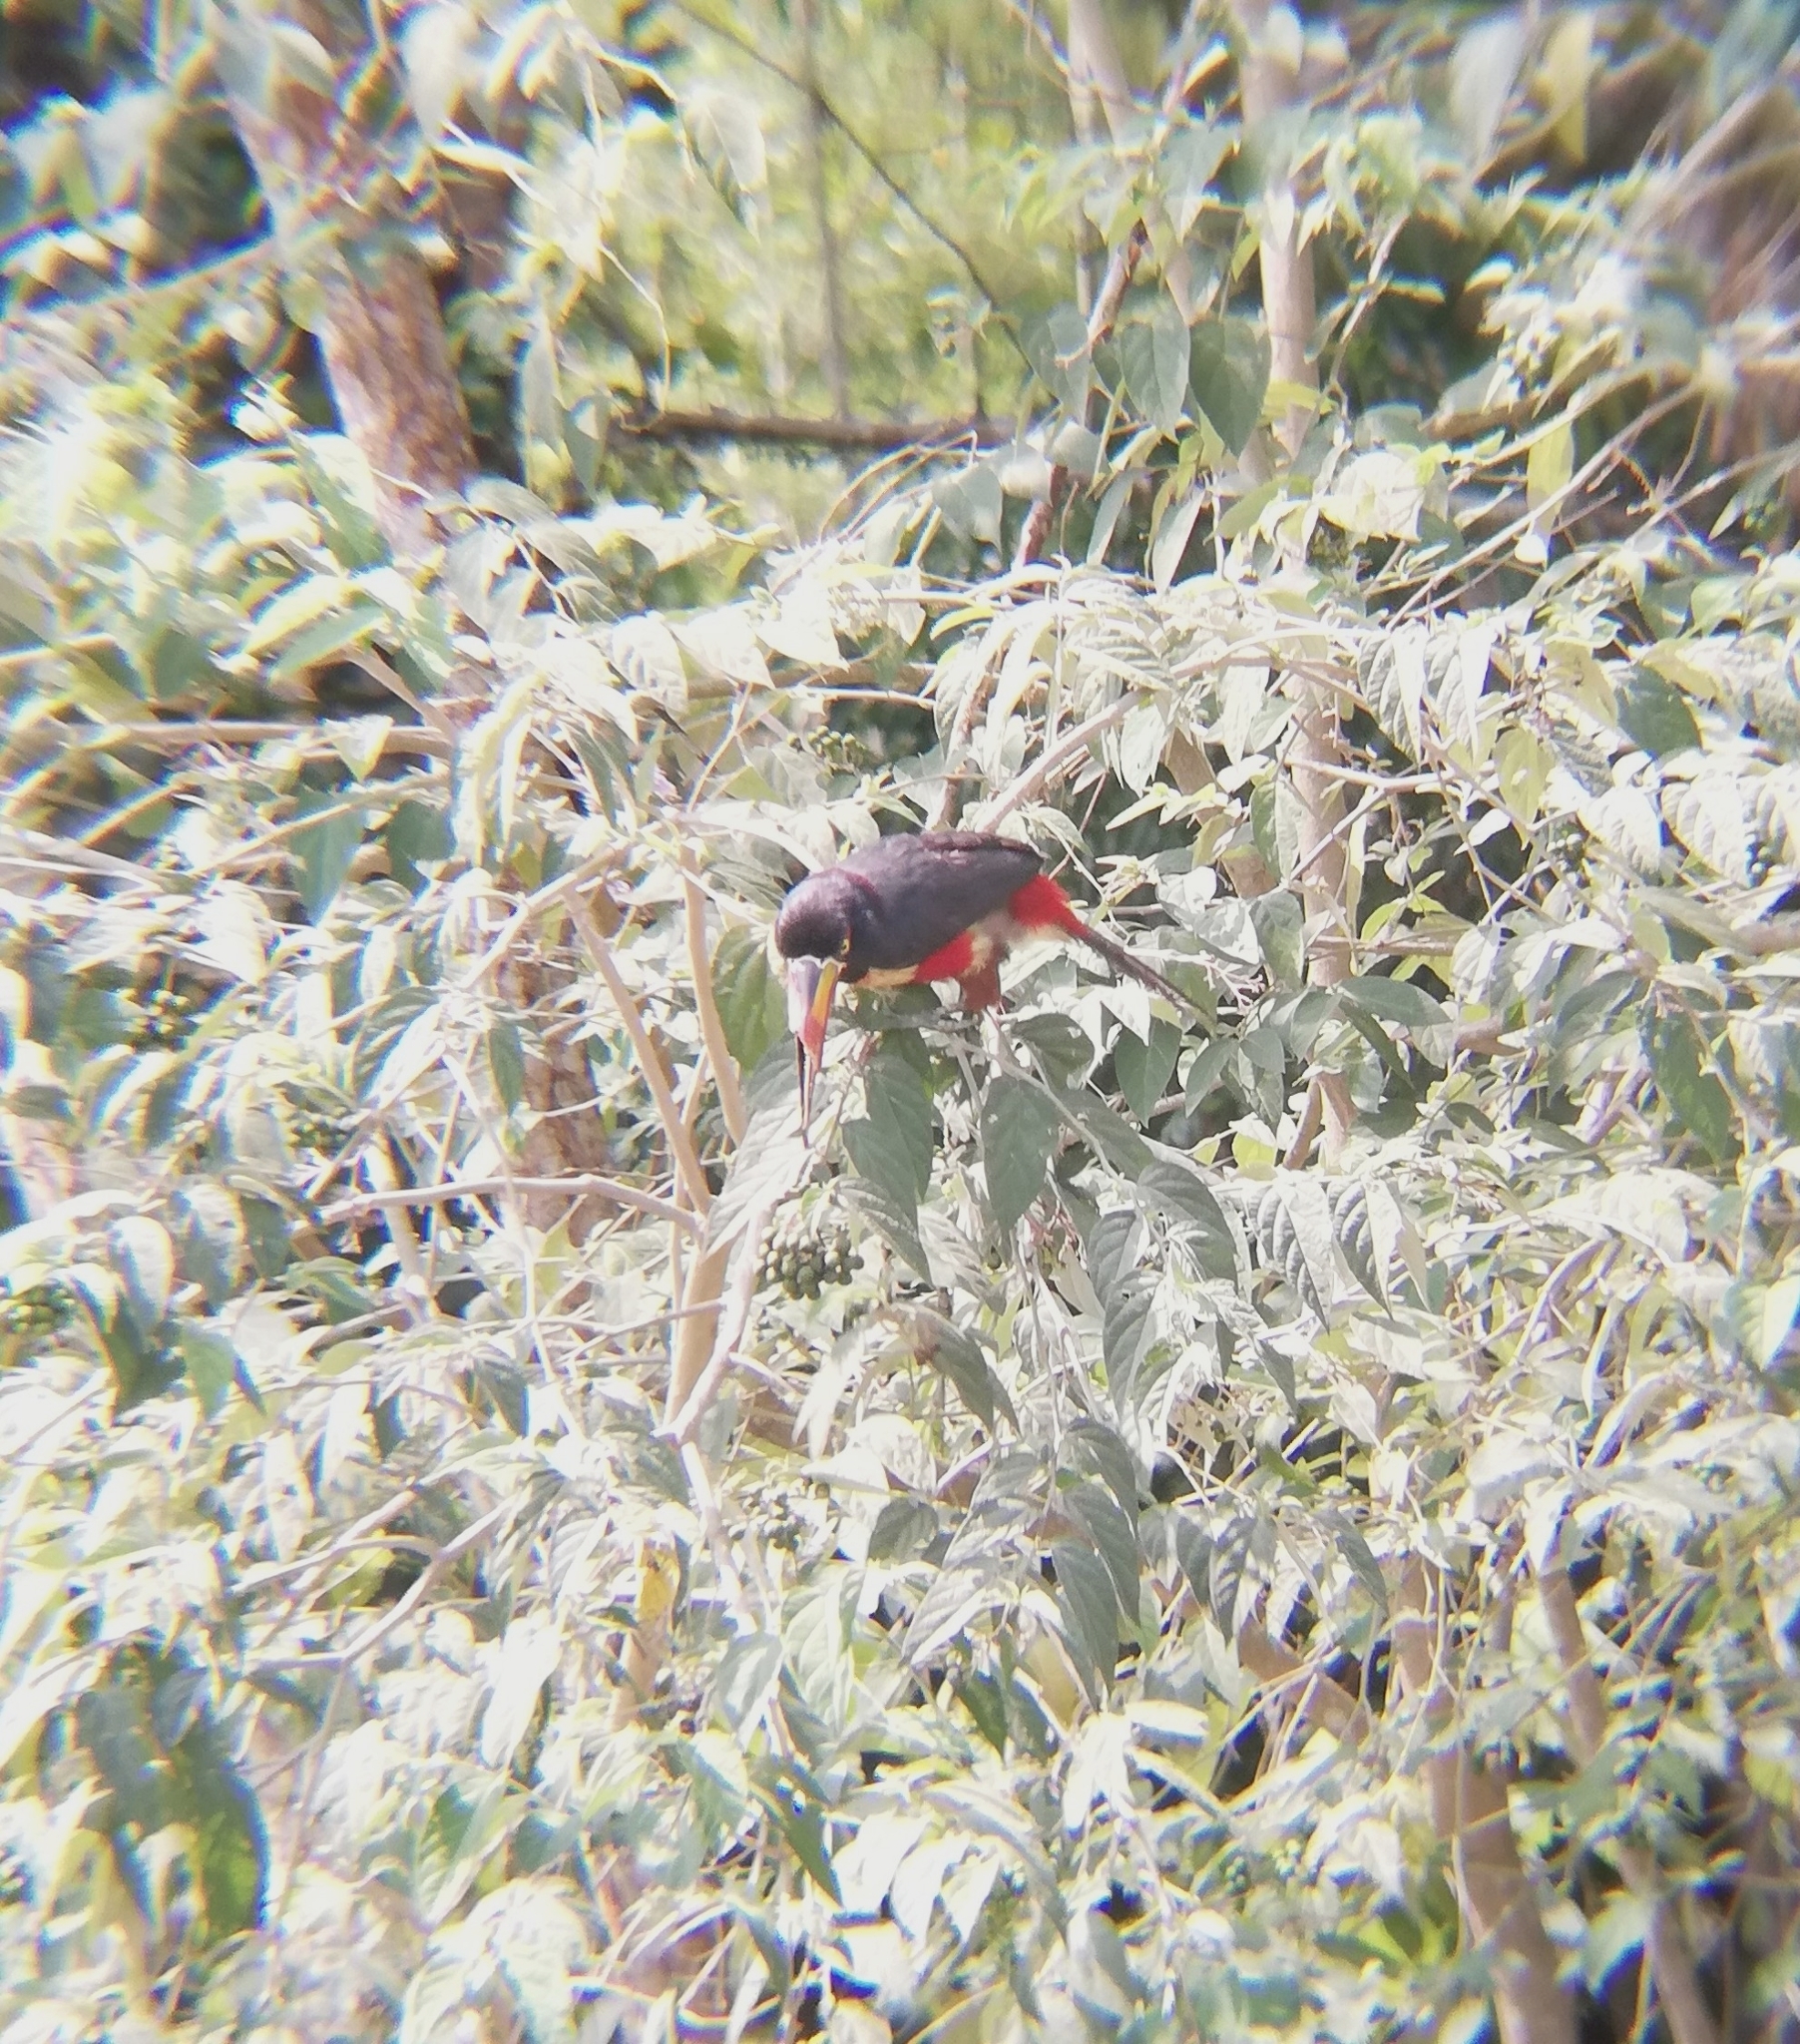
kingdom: Animalia
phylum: Chordata
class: Aves
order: Piciformes
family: Ramphastidae
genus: Pteroglossus
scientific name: Pteroglossus frantzii
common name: Fiery-billed aracari
